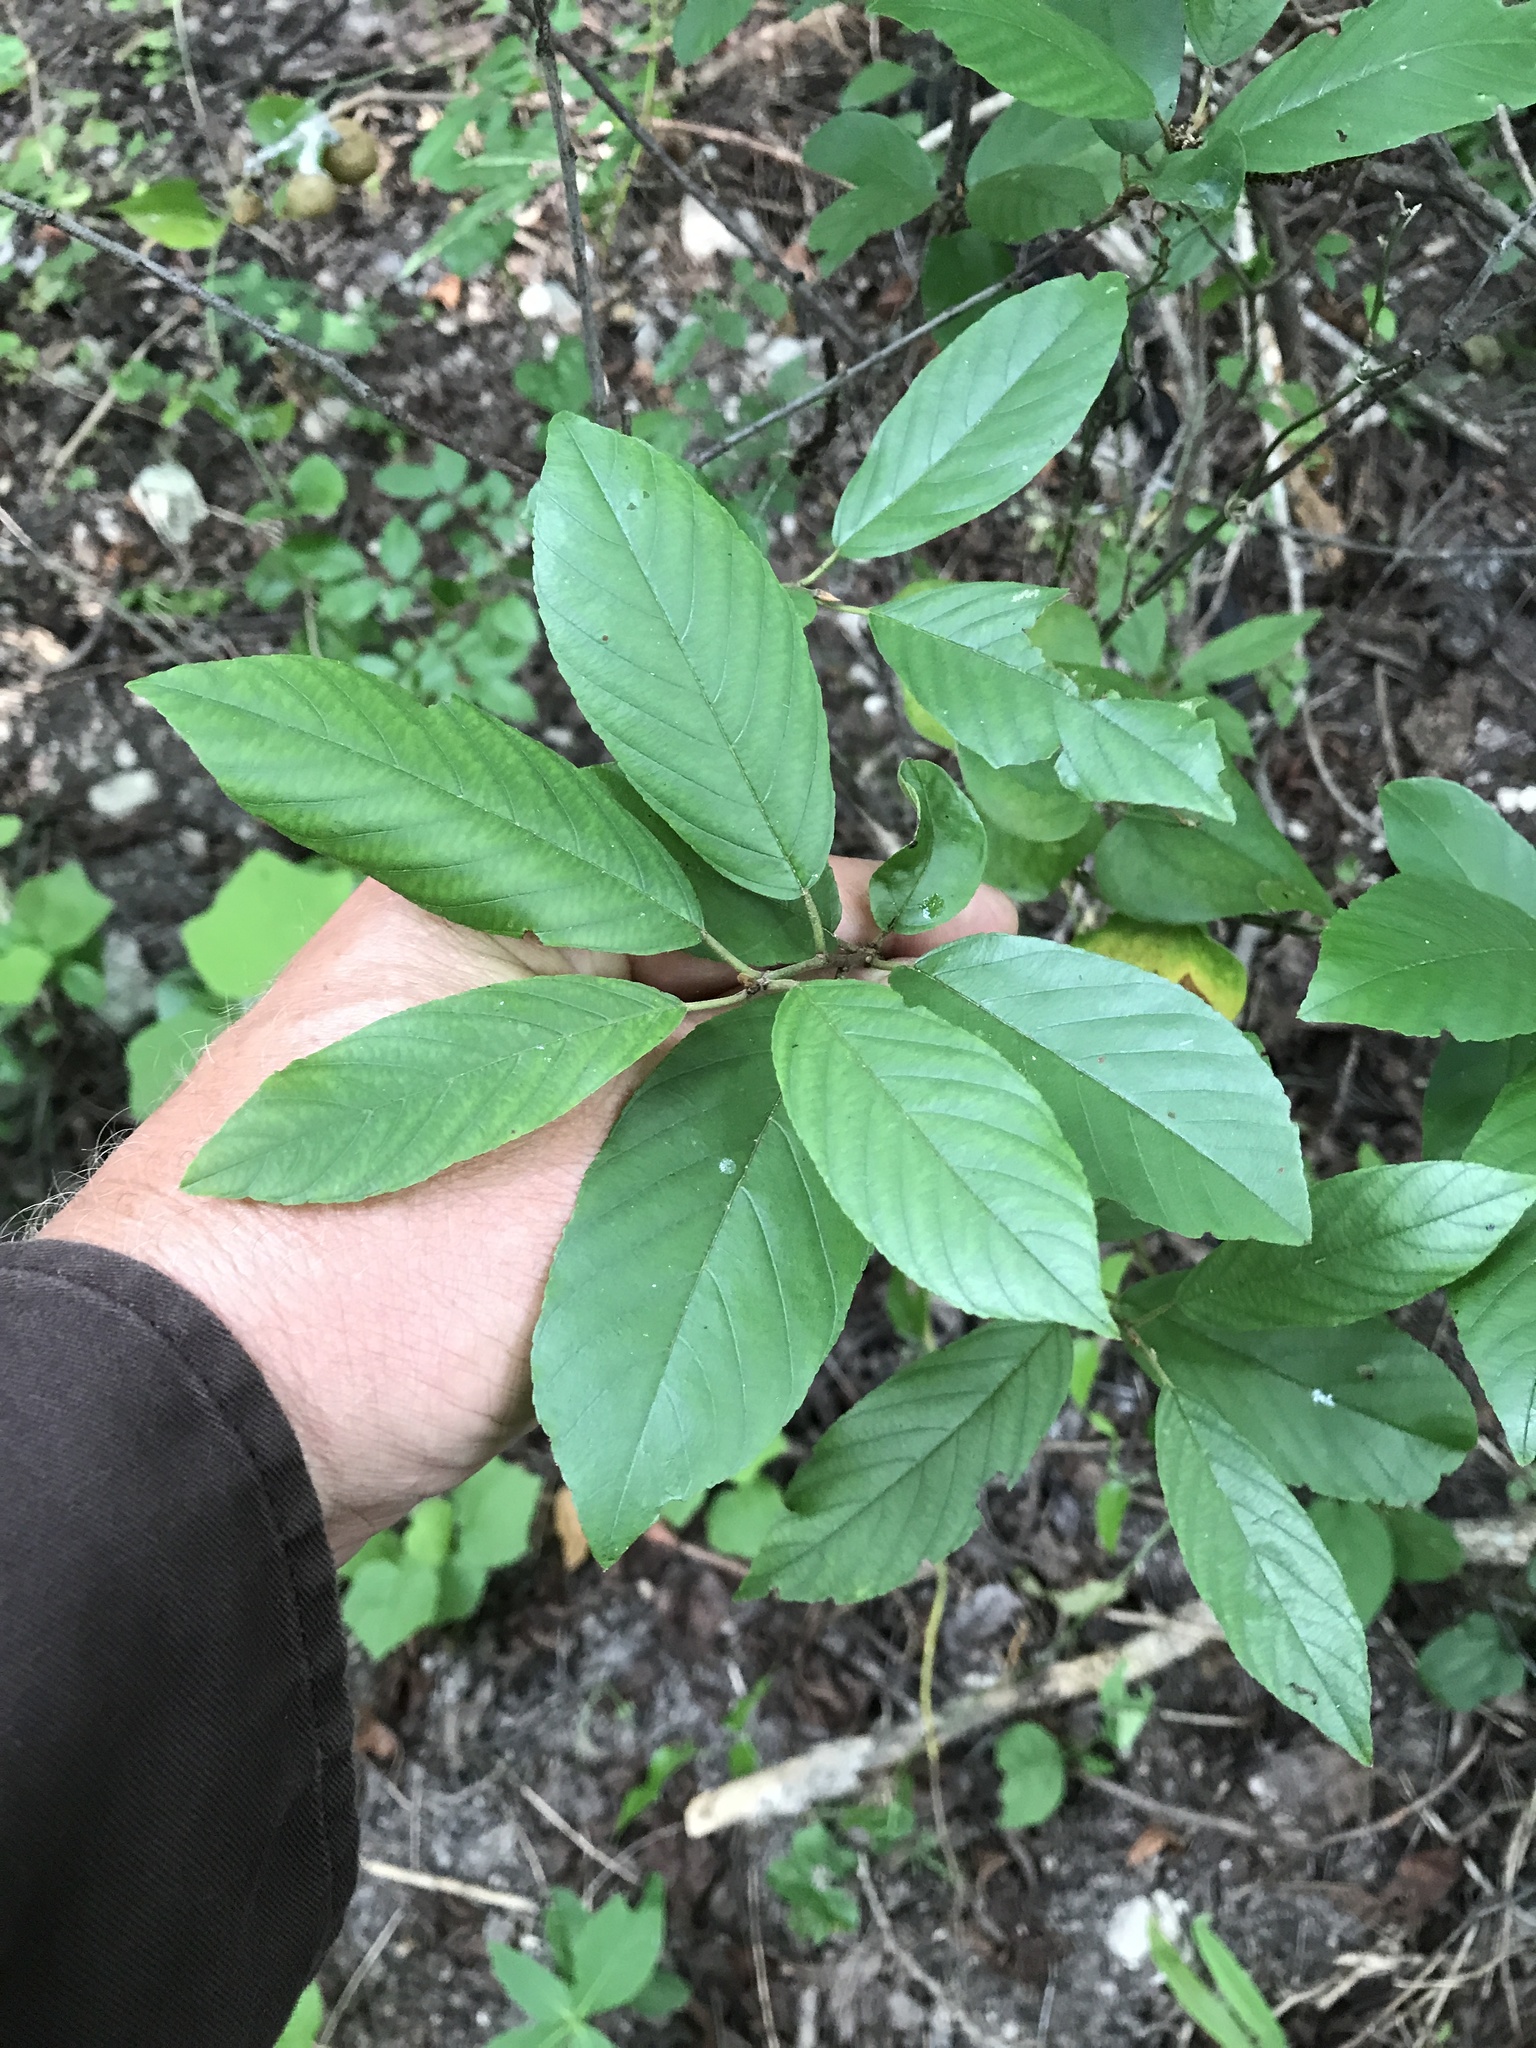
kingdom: Plantae
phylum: Tracheophyta
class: Magnoliopsida
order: Rosales
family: Rhamnaceae
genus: Frangula
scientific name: Frangula caroliniana
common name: Carolina buckthorn
